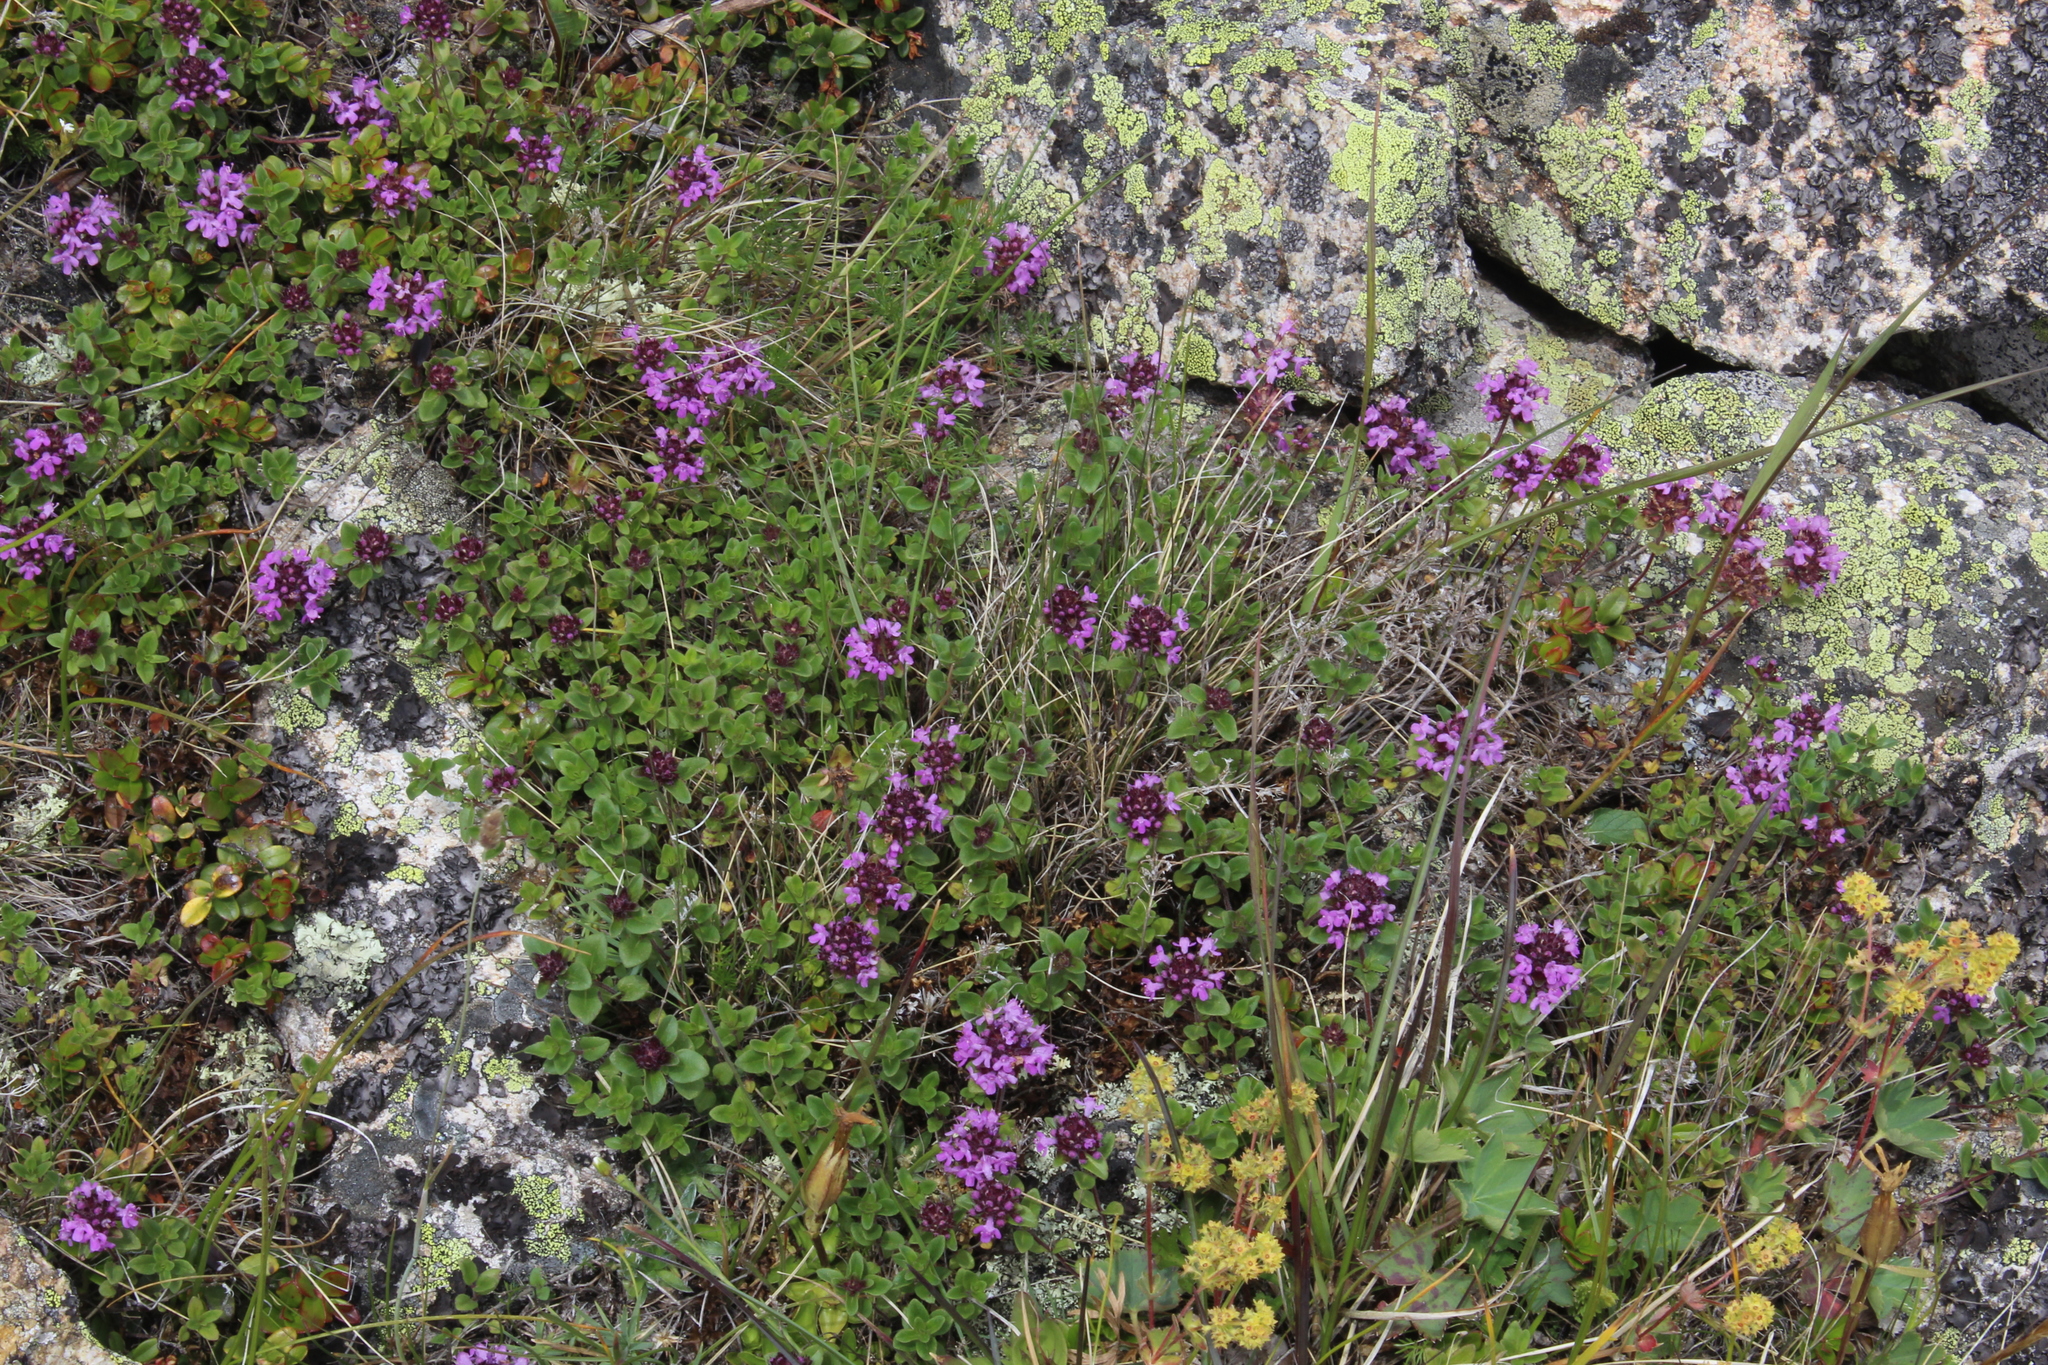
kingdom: Plantae
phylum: Tracheophyta
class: Magnoliopsida
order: Lamiales
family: Lamiaceae
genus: Thymus
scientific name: Thymus nummularius
